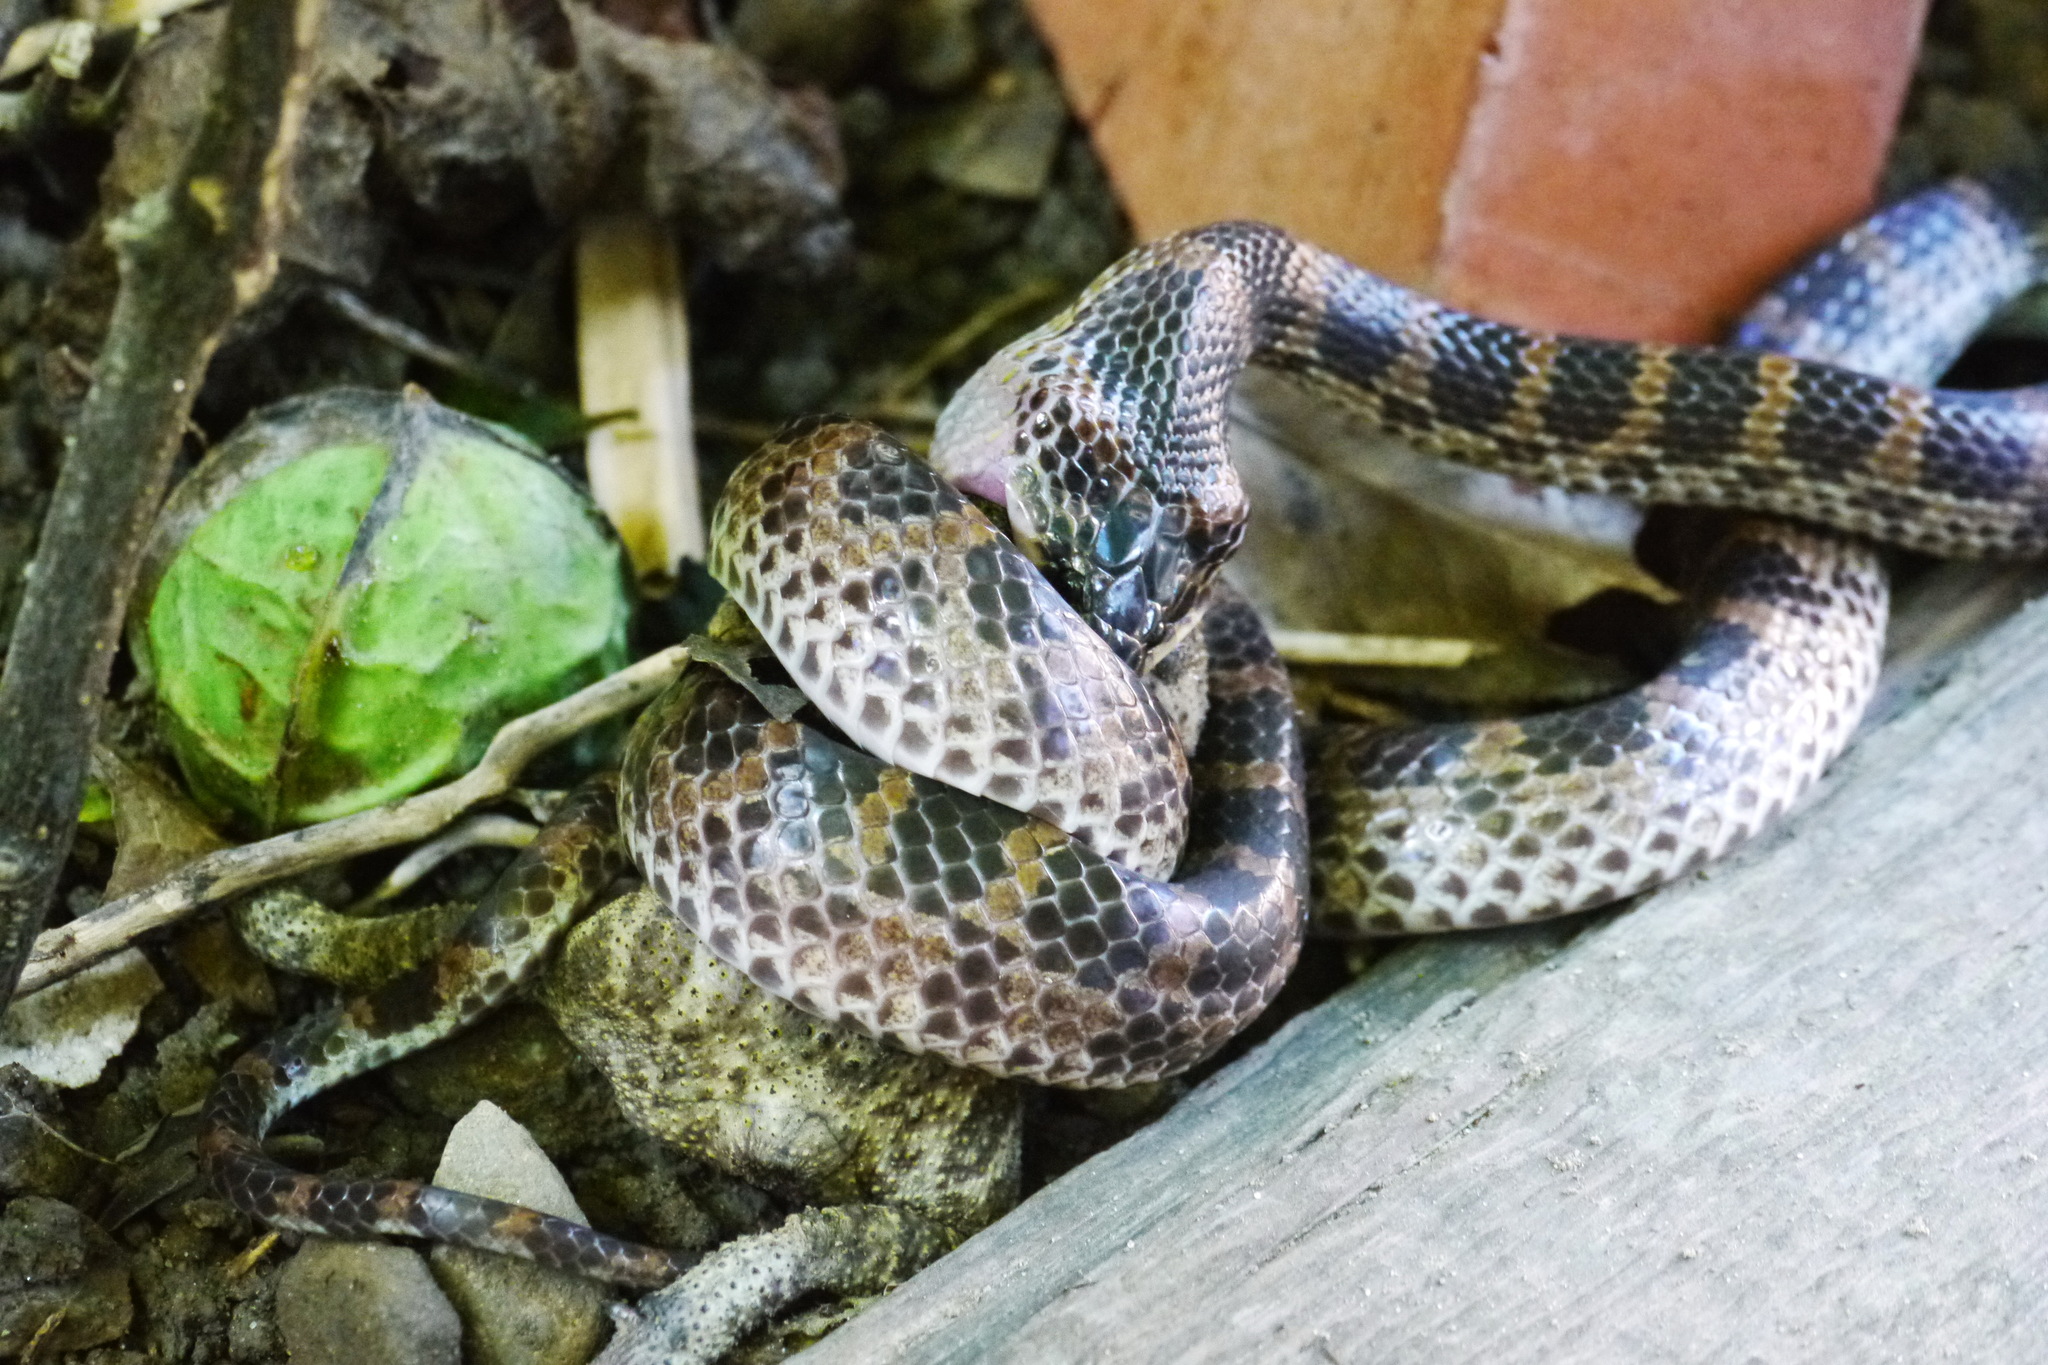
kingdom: Animalia
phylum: Chordata
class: Squamata
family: Colubridae
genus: Lycodon
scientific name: Lycodon rufozonatus
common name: Red-banded snake
